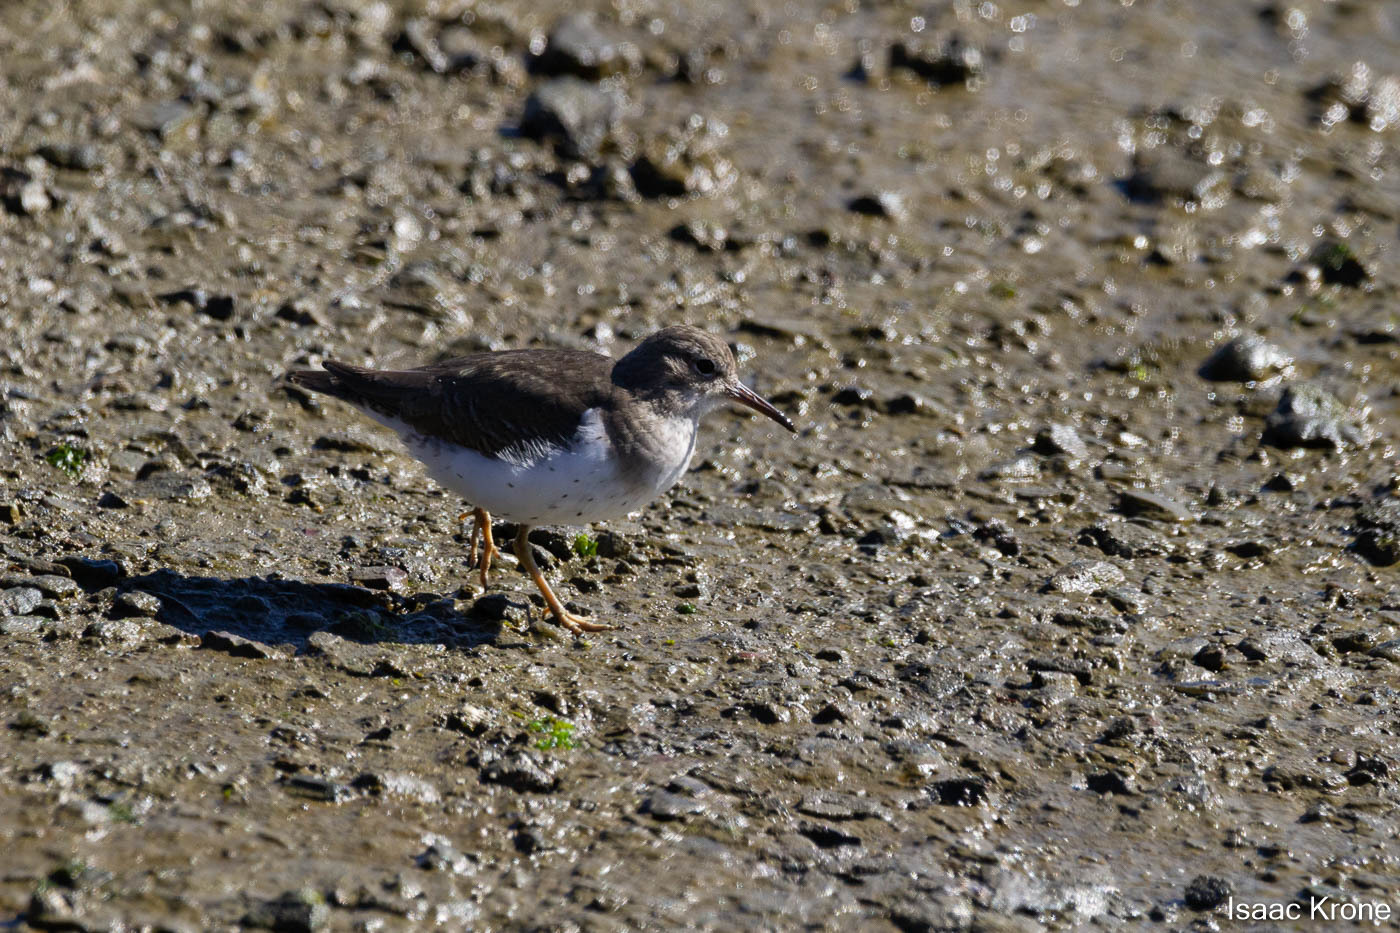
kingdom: Animalia
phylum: Chordata
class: Aves
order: Charadriiformes
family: Scolopacidae
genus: Actitis
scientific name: Actitis macularius
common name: Spotted sandpiper
